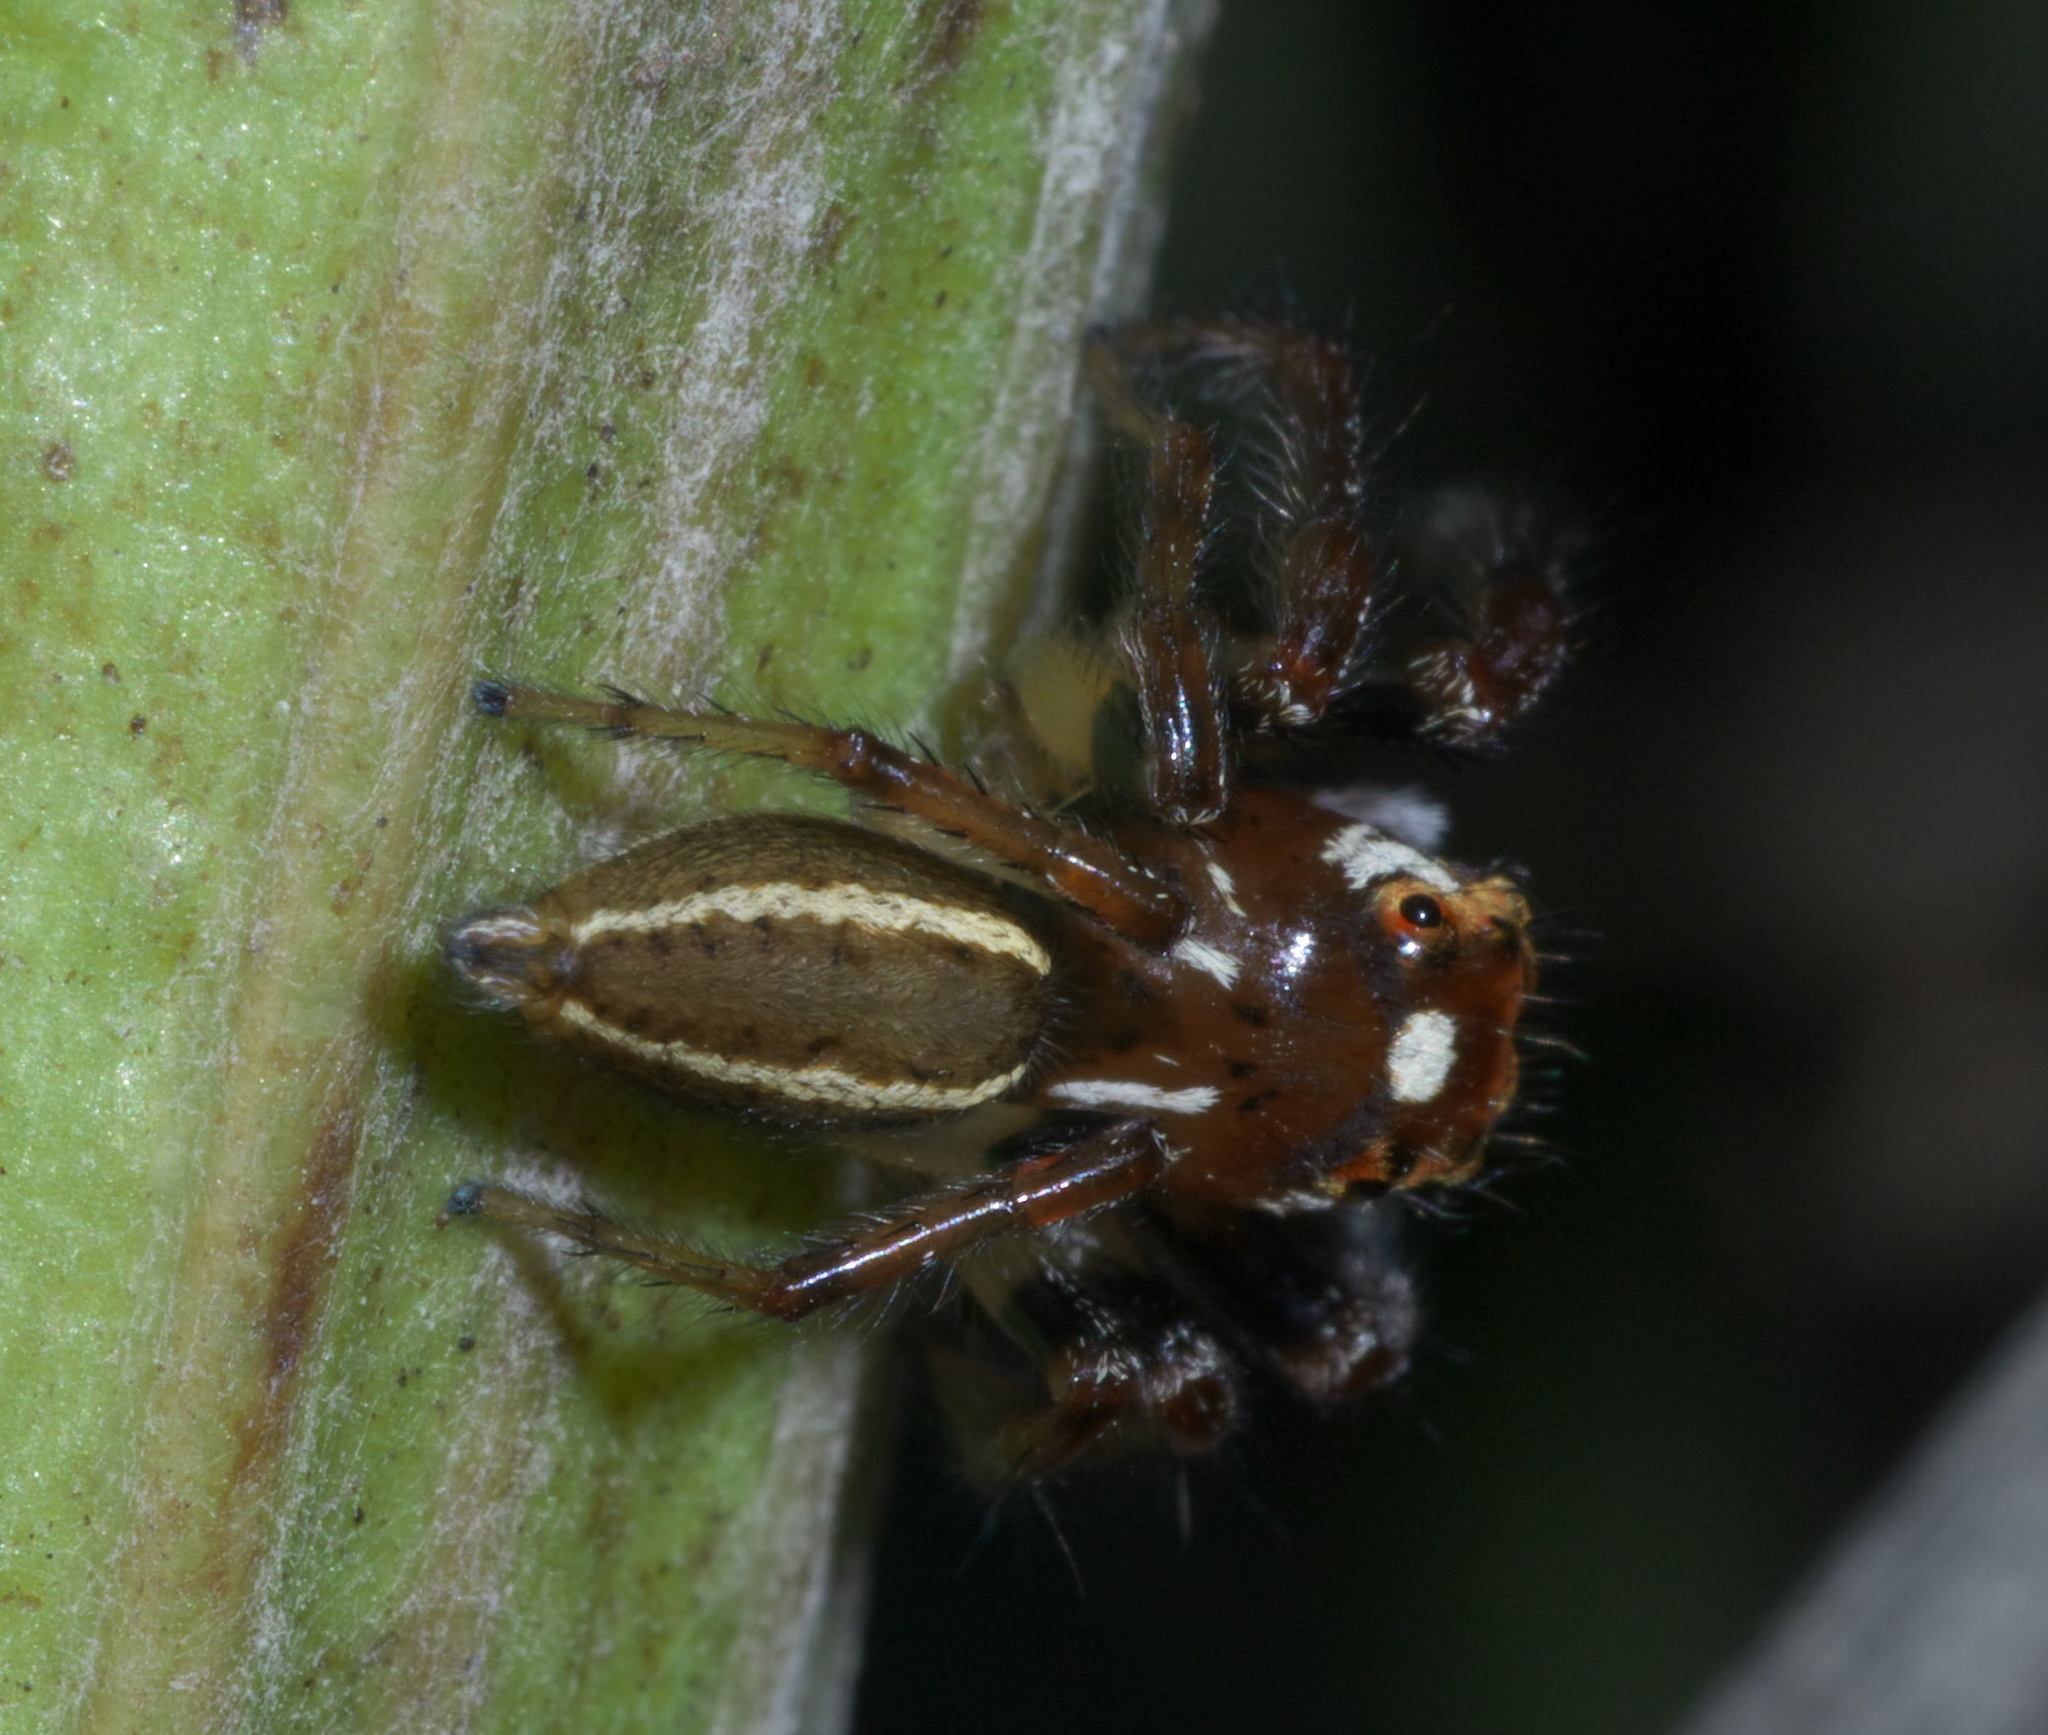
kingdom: Animalia
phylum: Arthropoda
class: Arachnida
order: Araneae
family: Salticidae
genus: Colonus
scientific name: Colonus sylvanus
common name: Jumping spiders
